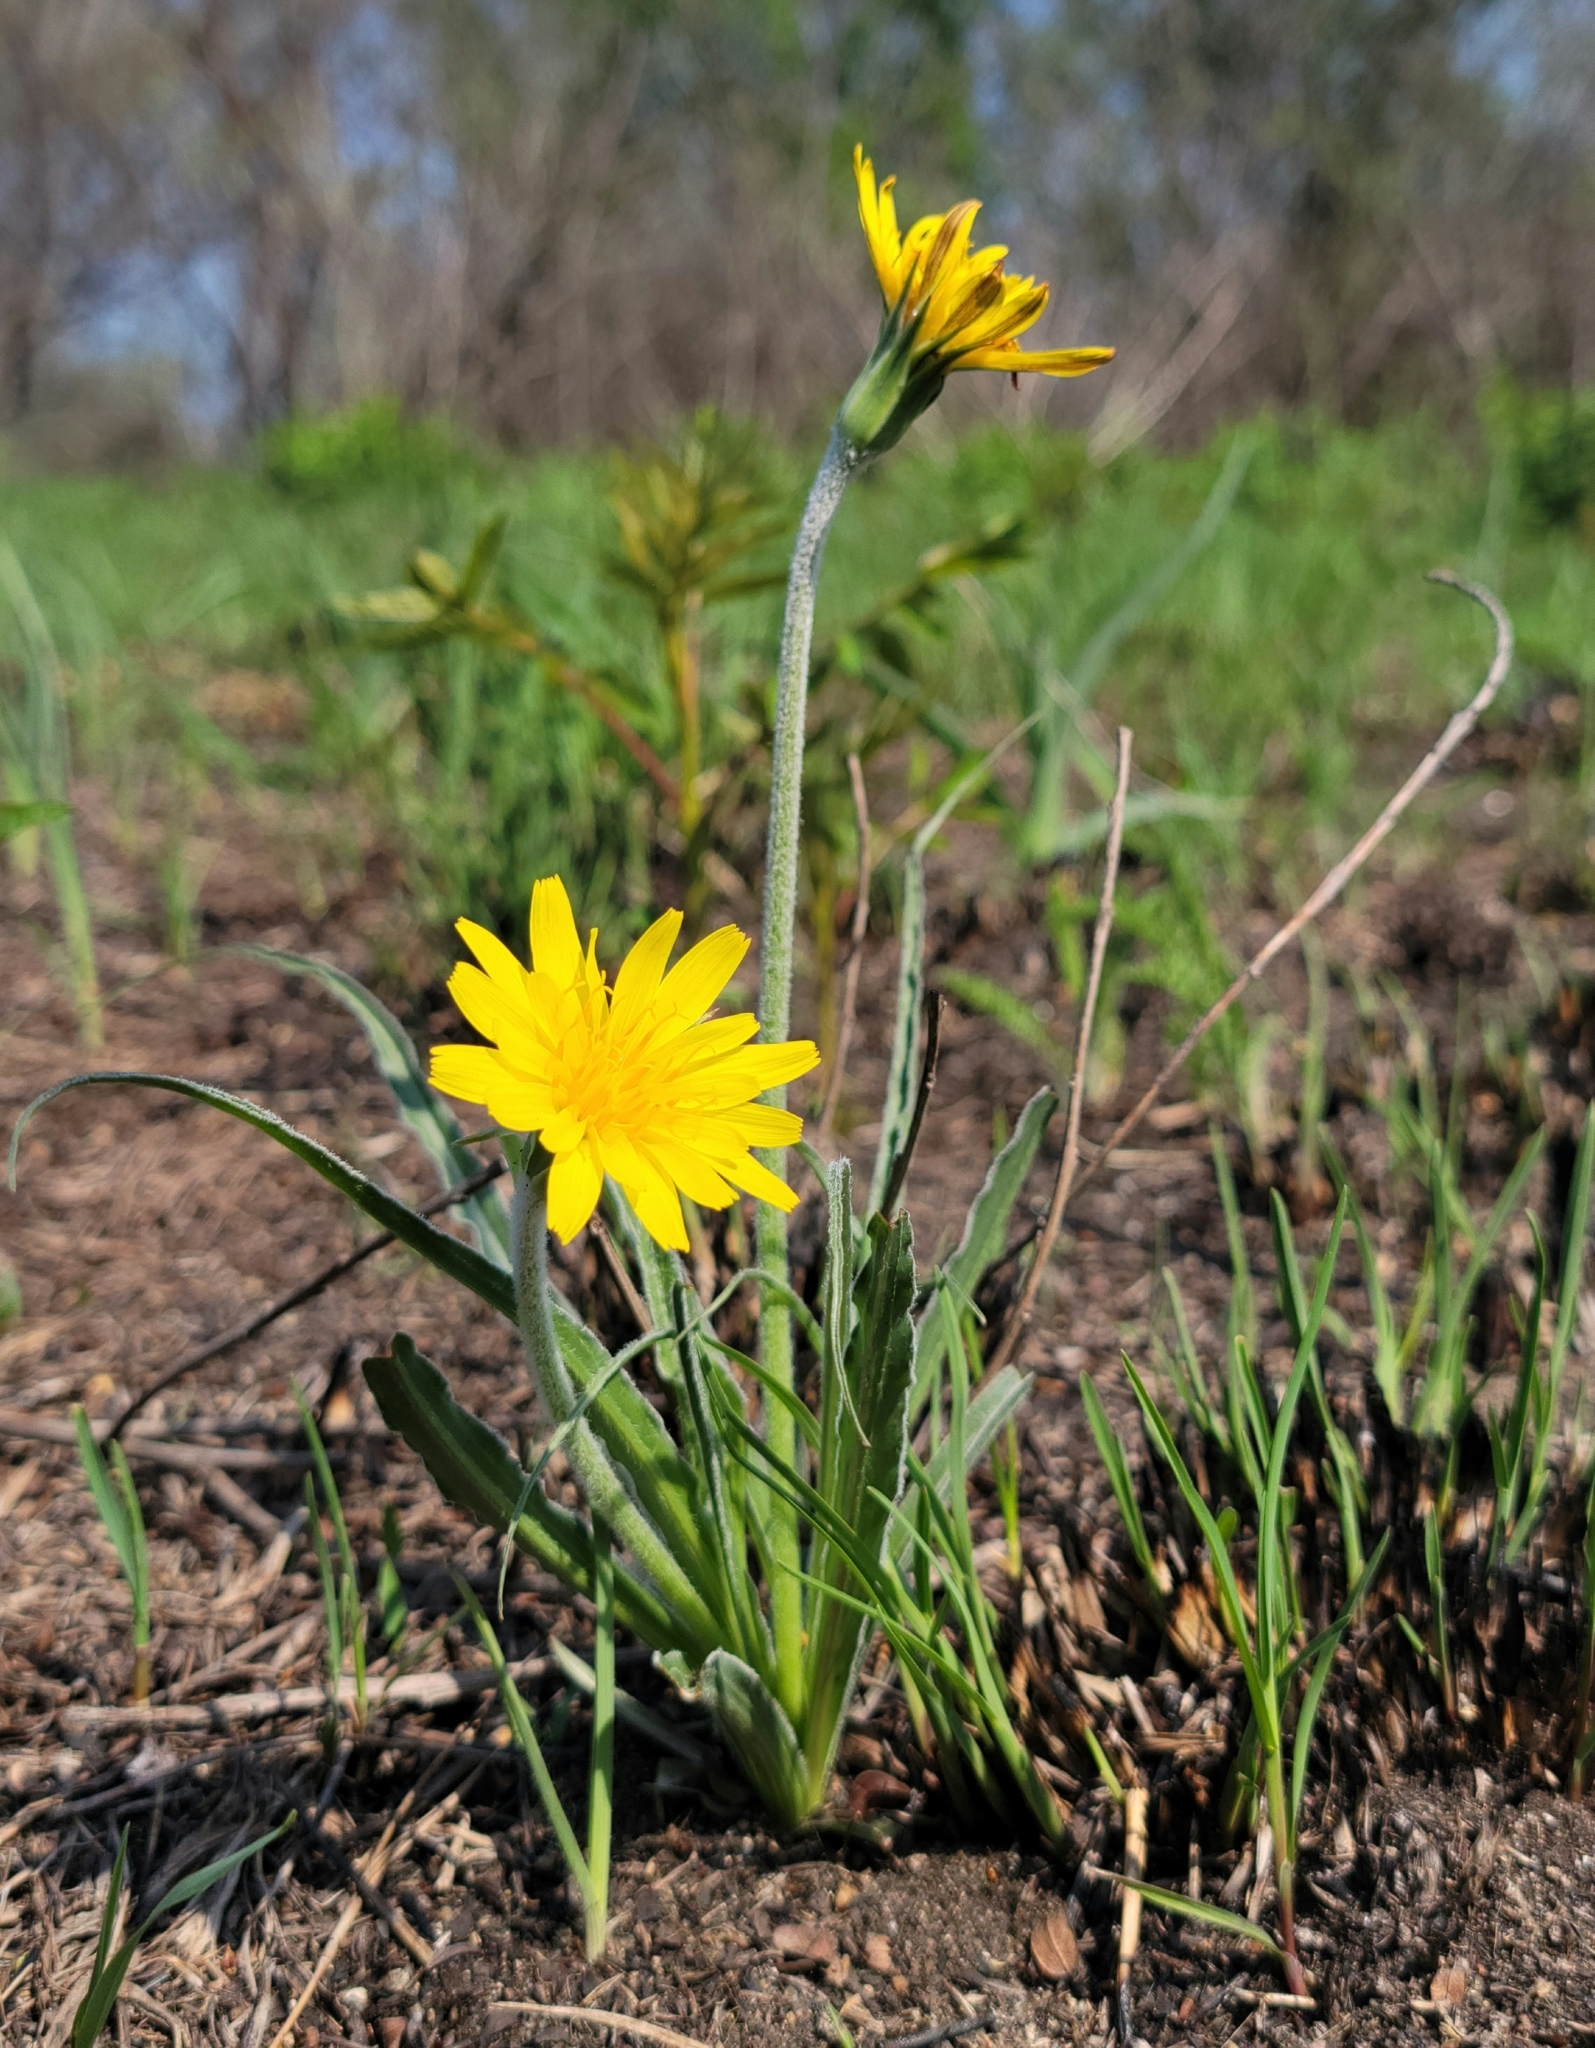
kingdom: Plantae
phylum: Tracheophyta
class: Magnoliopsida
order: Asterales
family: Asteraceae
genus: Microseris
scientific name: Microseris cuspidata
